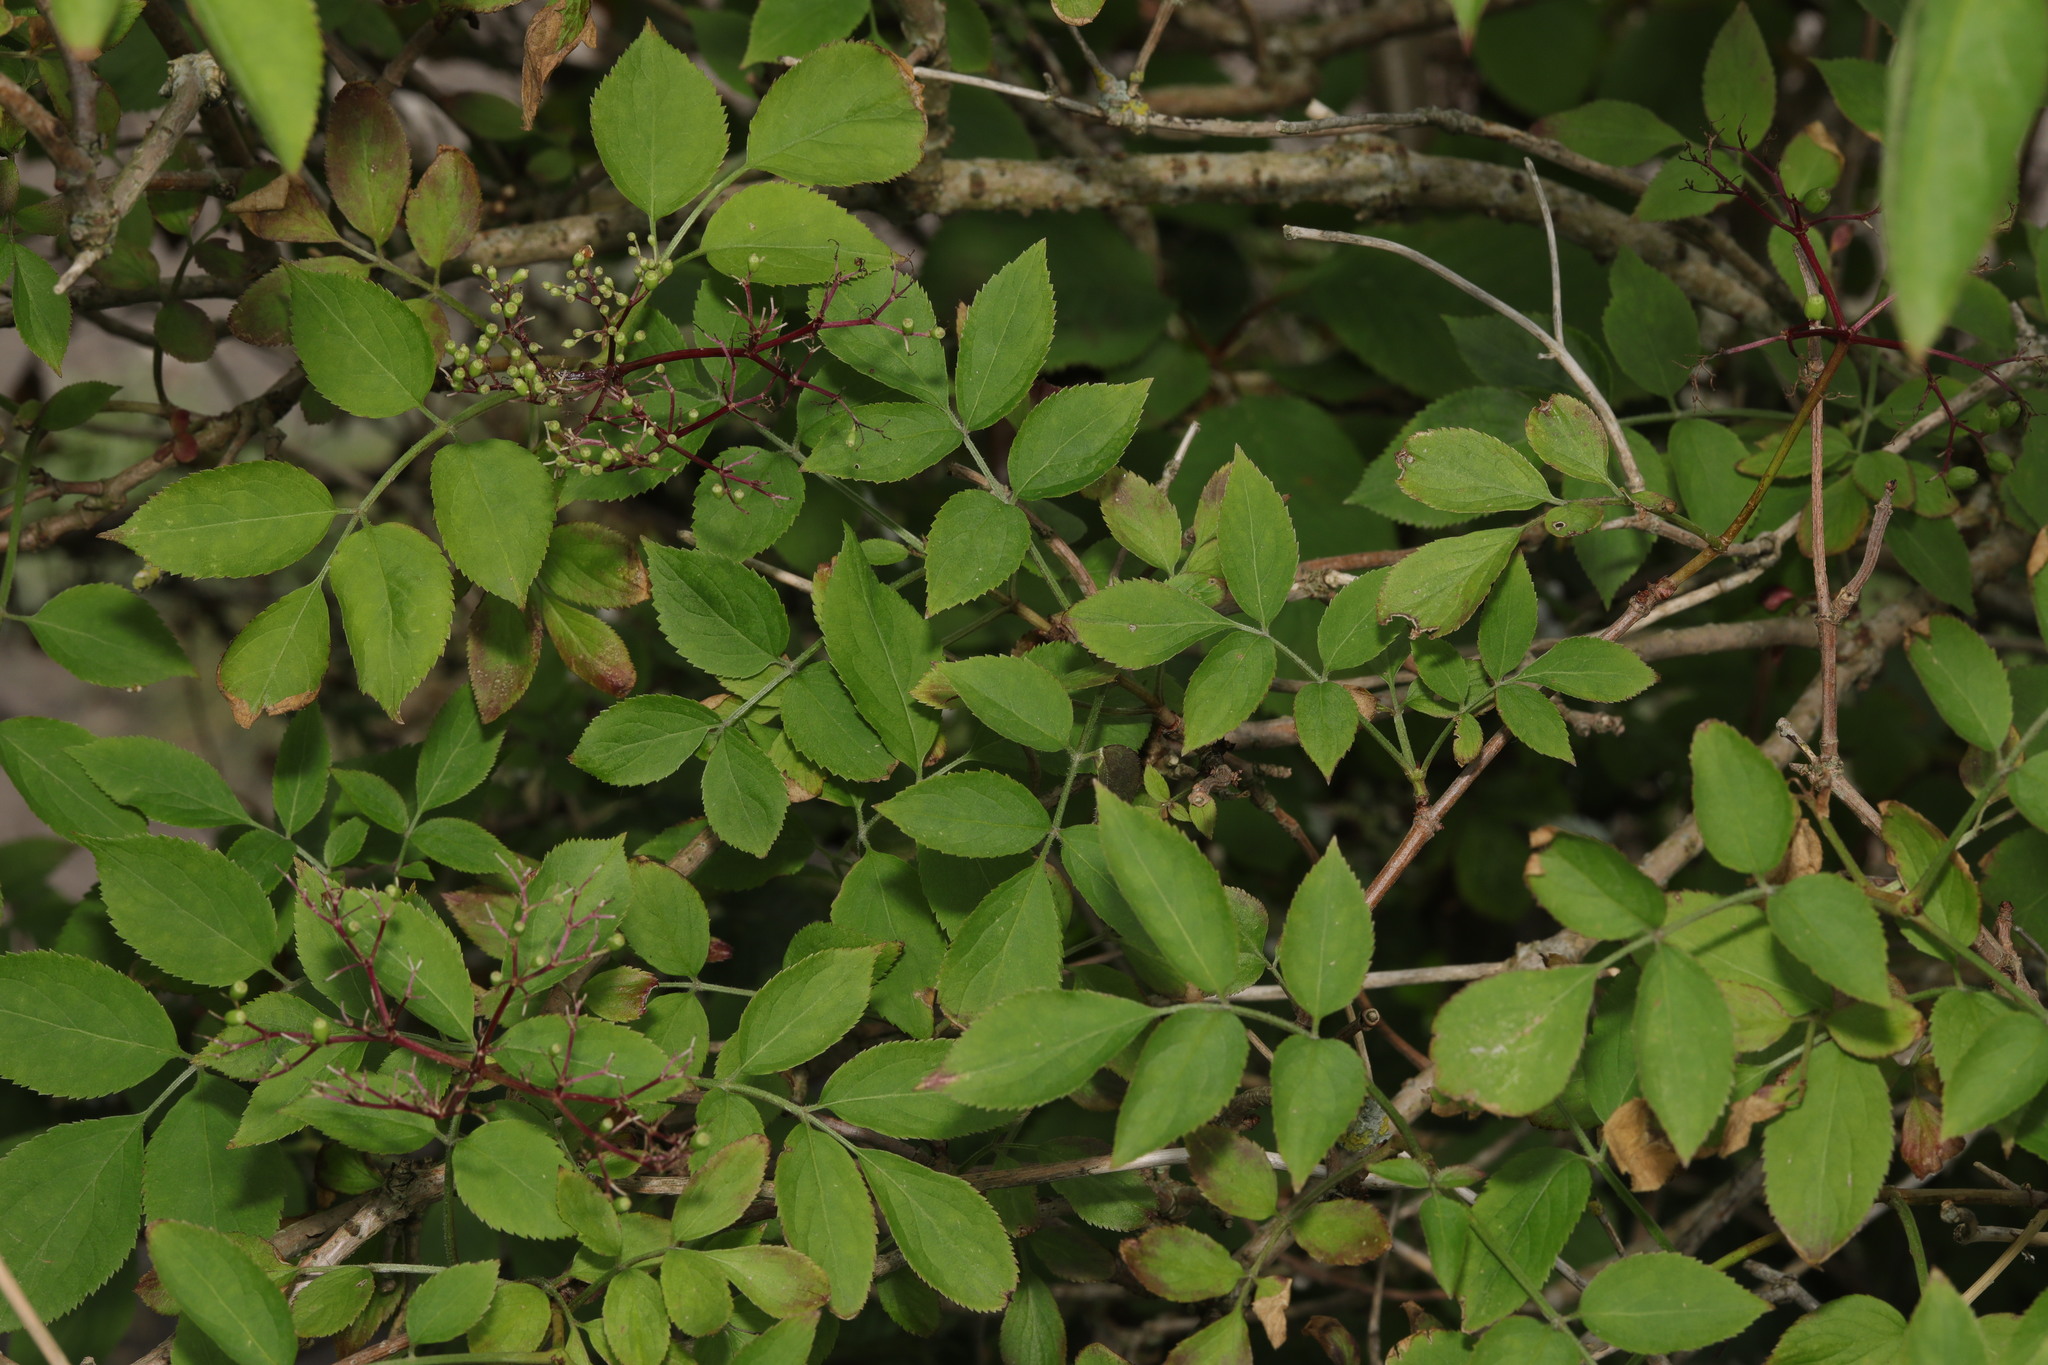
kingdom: Plantae
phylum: Tracheophyta
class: Magnoliopsida
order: Dipsacales
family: Viburnaceae
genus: Sambucus
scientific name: Sambucus nigra
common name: Elder
